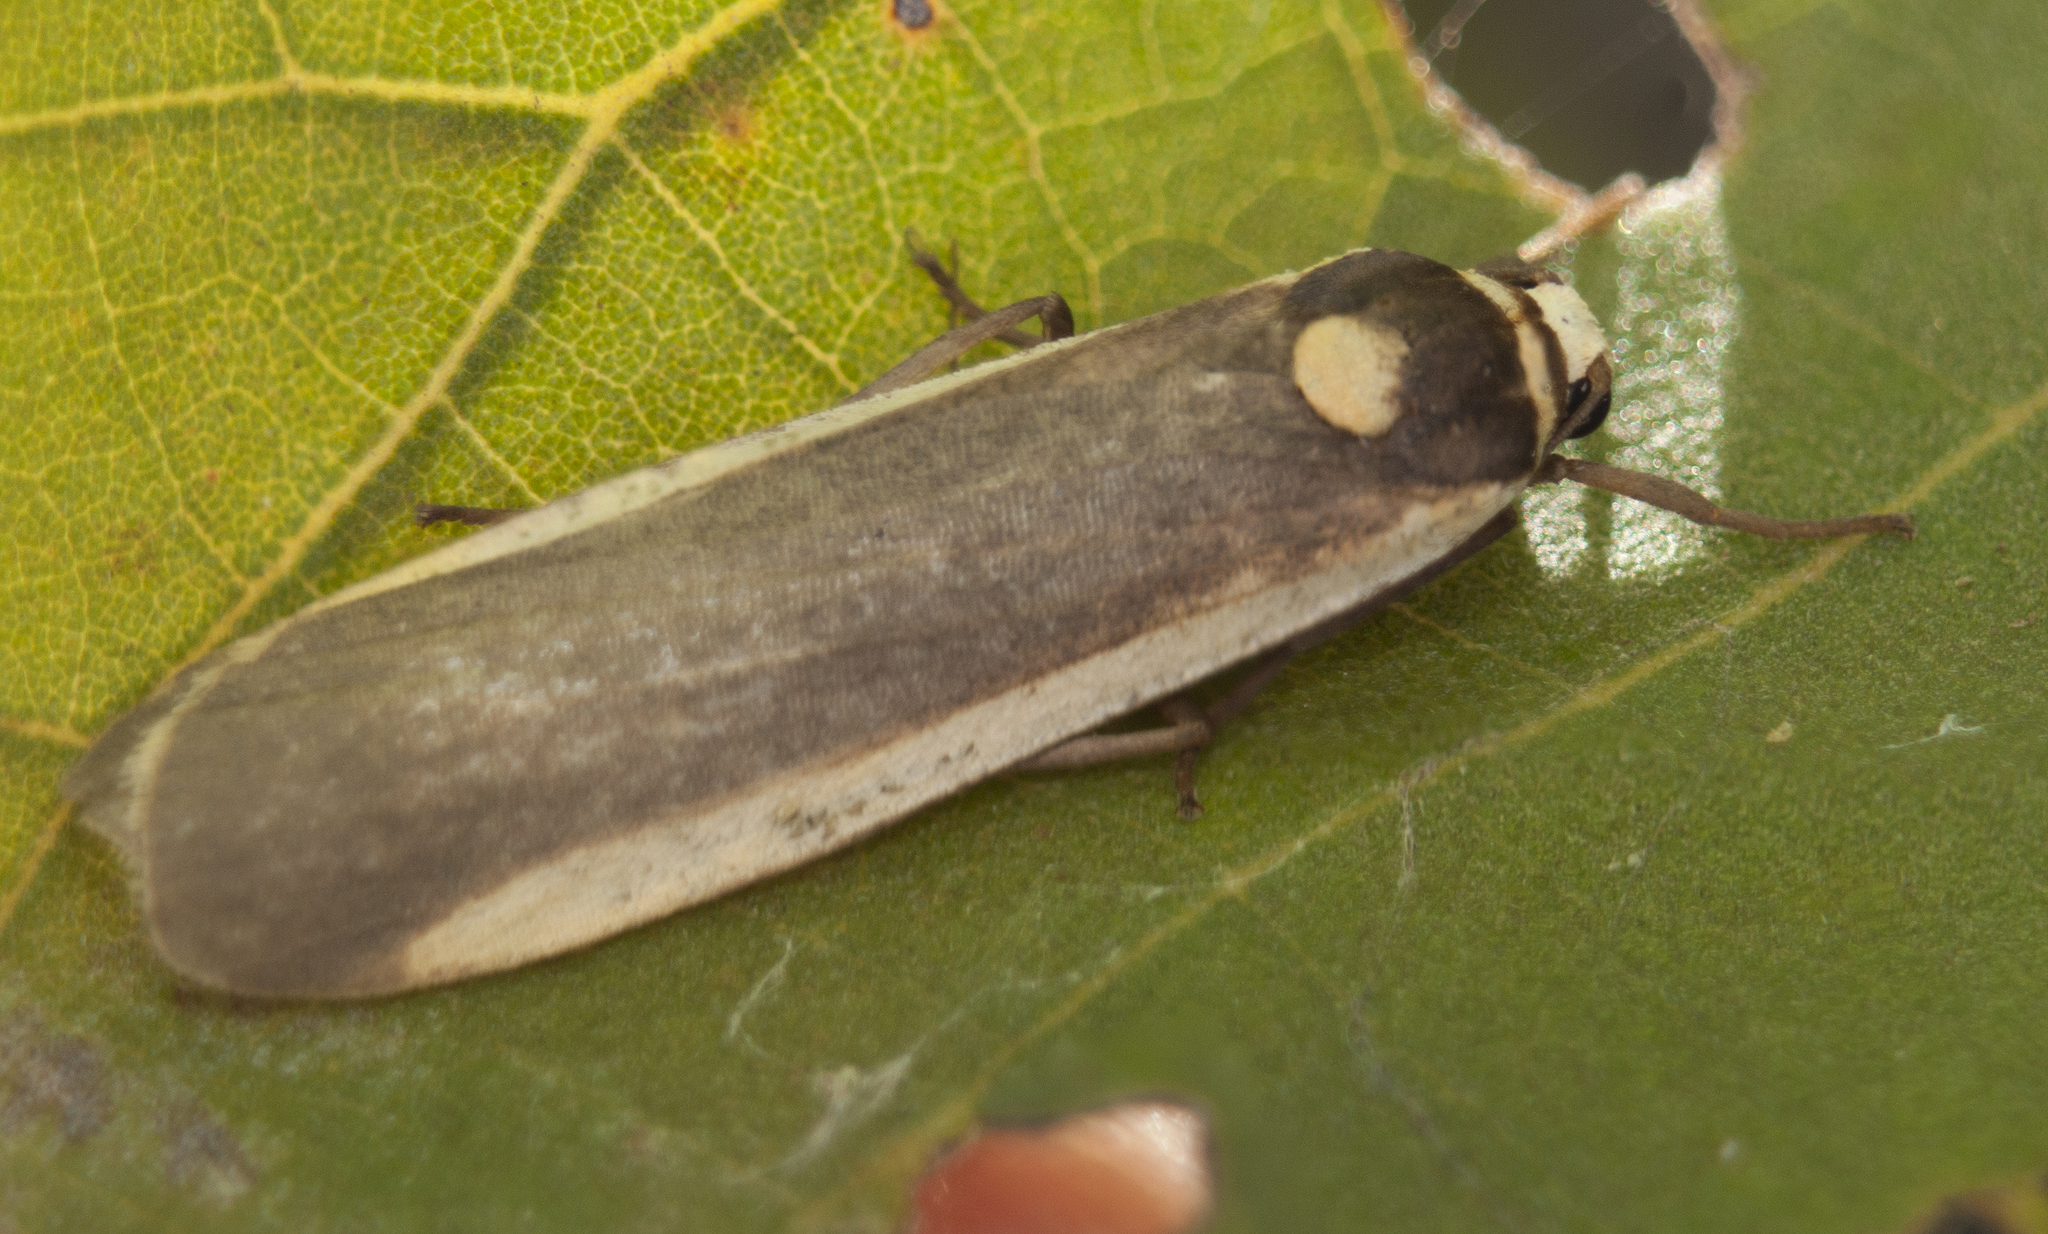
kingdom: Animalia
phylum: Arthropoda
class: Insecta
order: Lepidoptera
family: Erebidae
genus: Brunia
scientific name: Brunia replana
